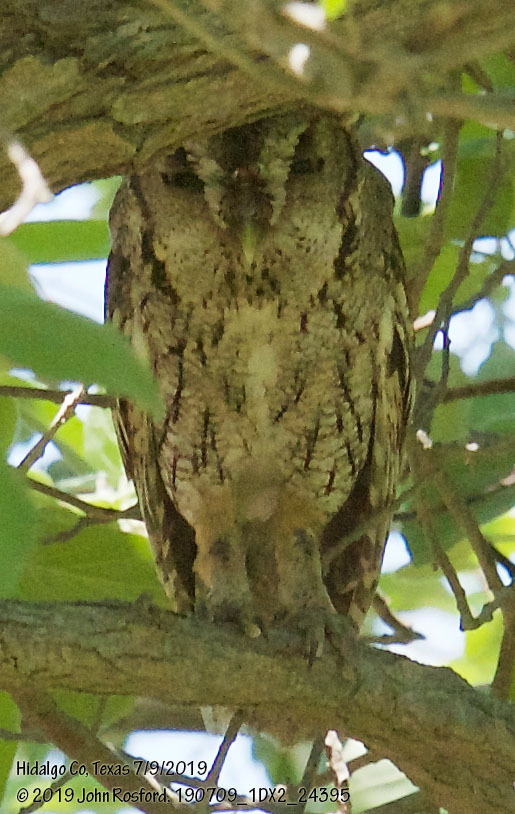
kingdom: Animalia
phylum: Chordata
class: Aves
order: Strigiformes
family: Strigidae
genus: Megascops
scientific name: Megascops asio
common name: Eastern screech-owl
